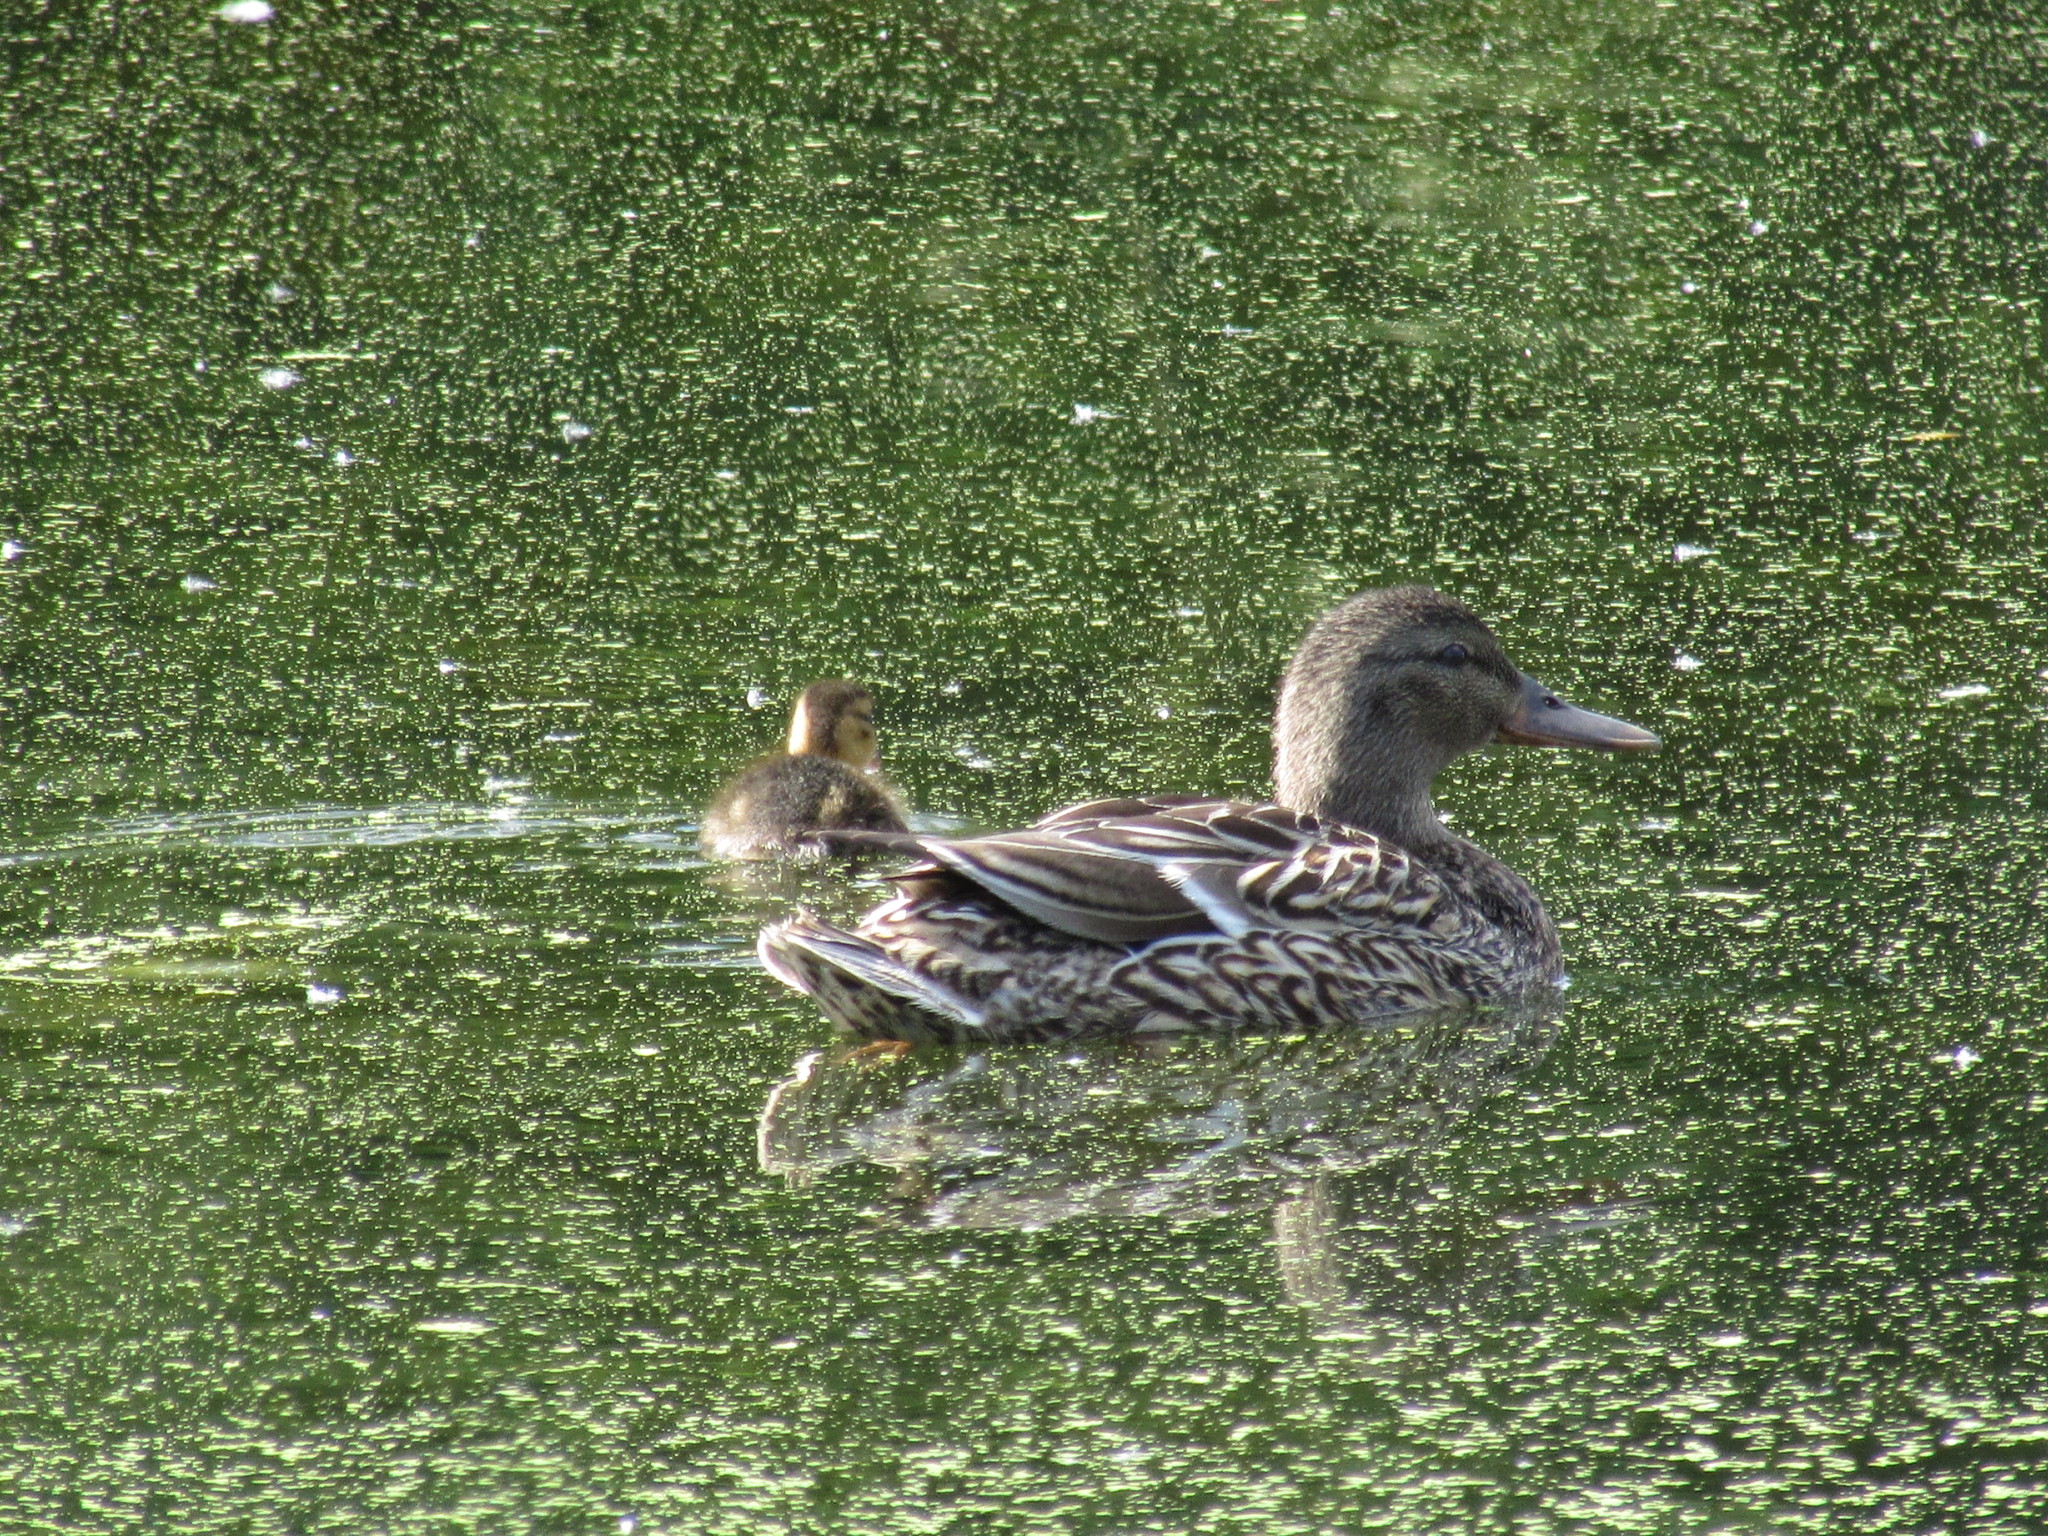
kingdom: Animalia
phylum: Chordata
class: Aves
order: Anseriformes
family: Anatidae
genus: Anas
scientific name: Anas platyrhynchos
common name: Mallard
